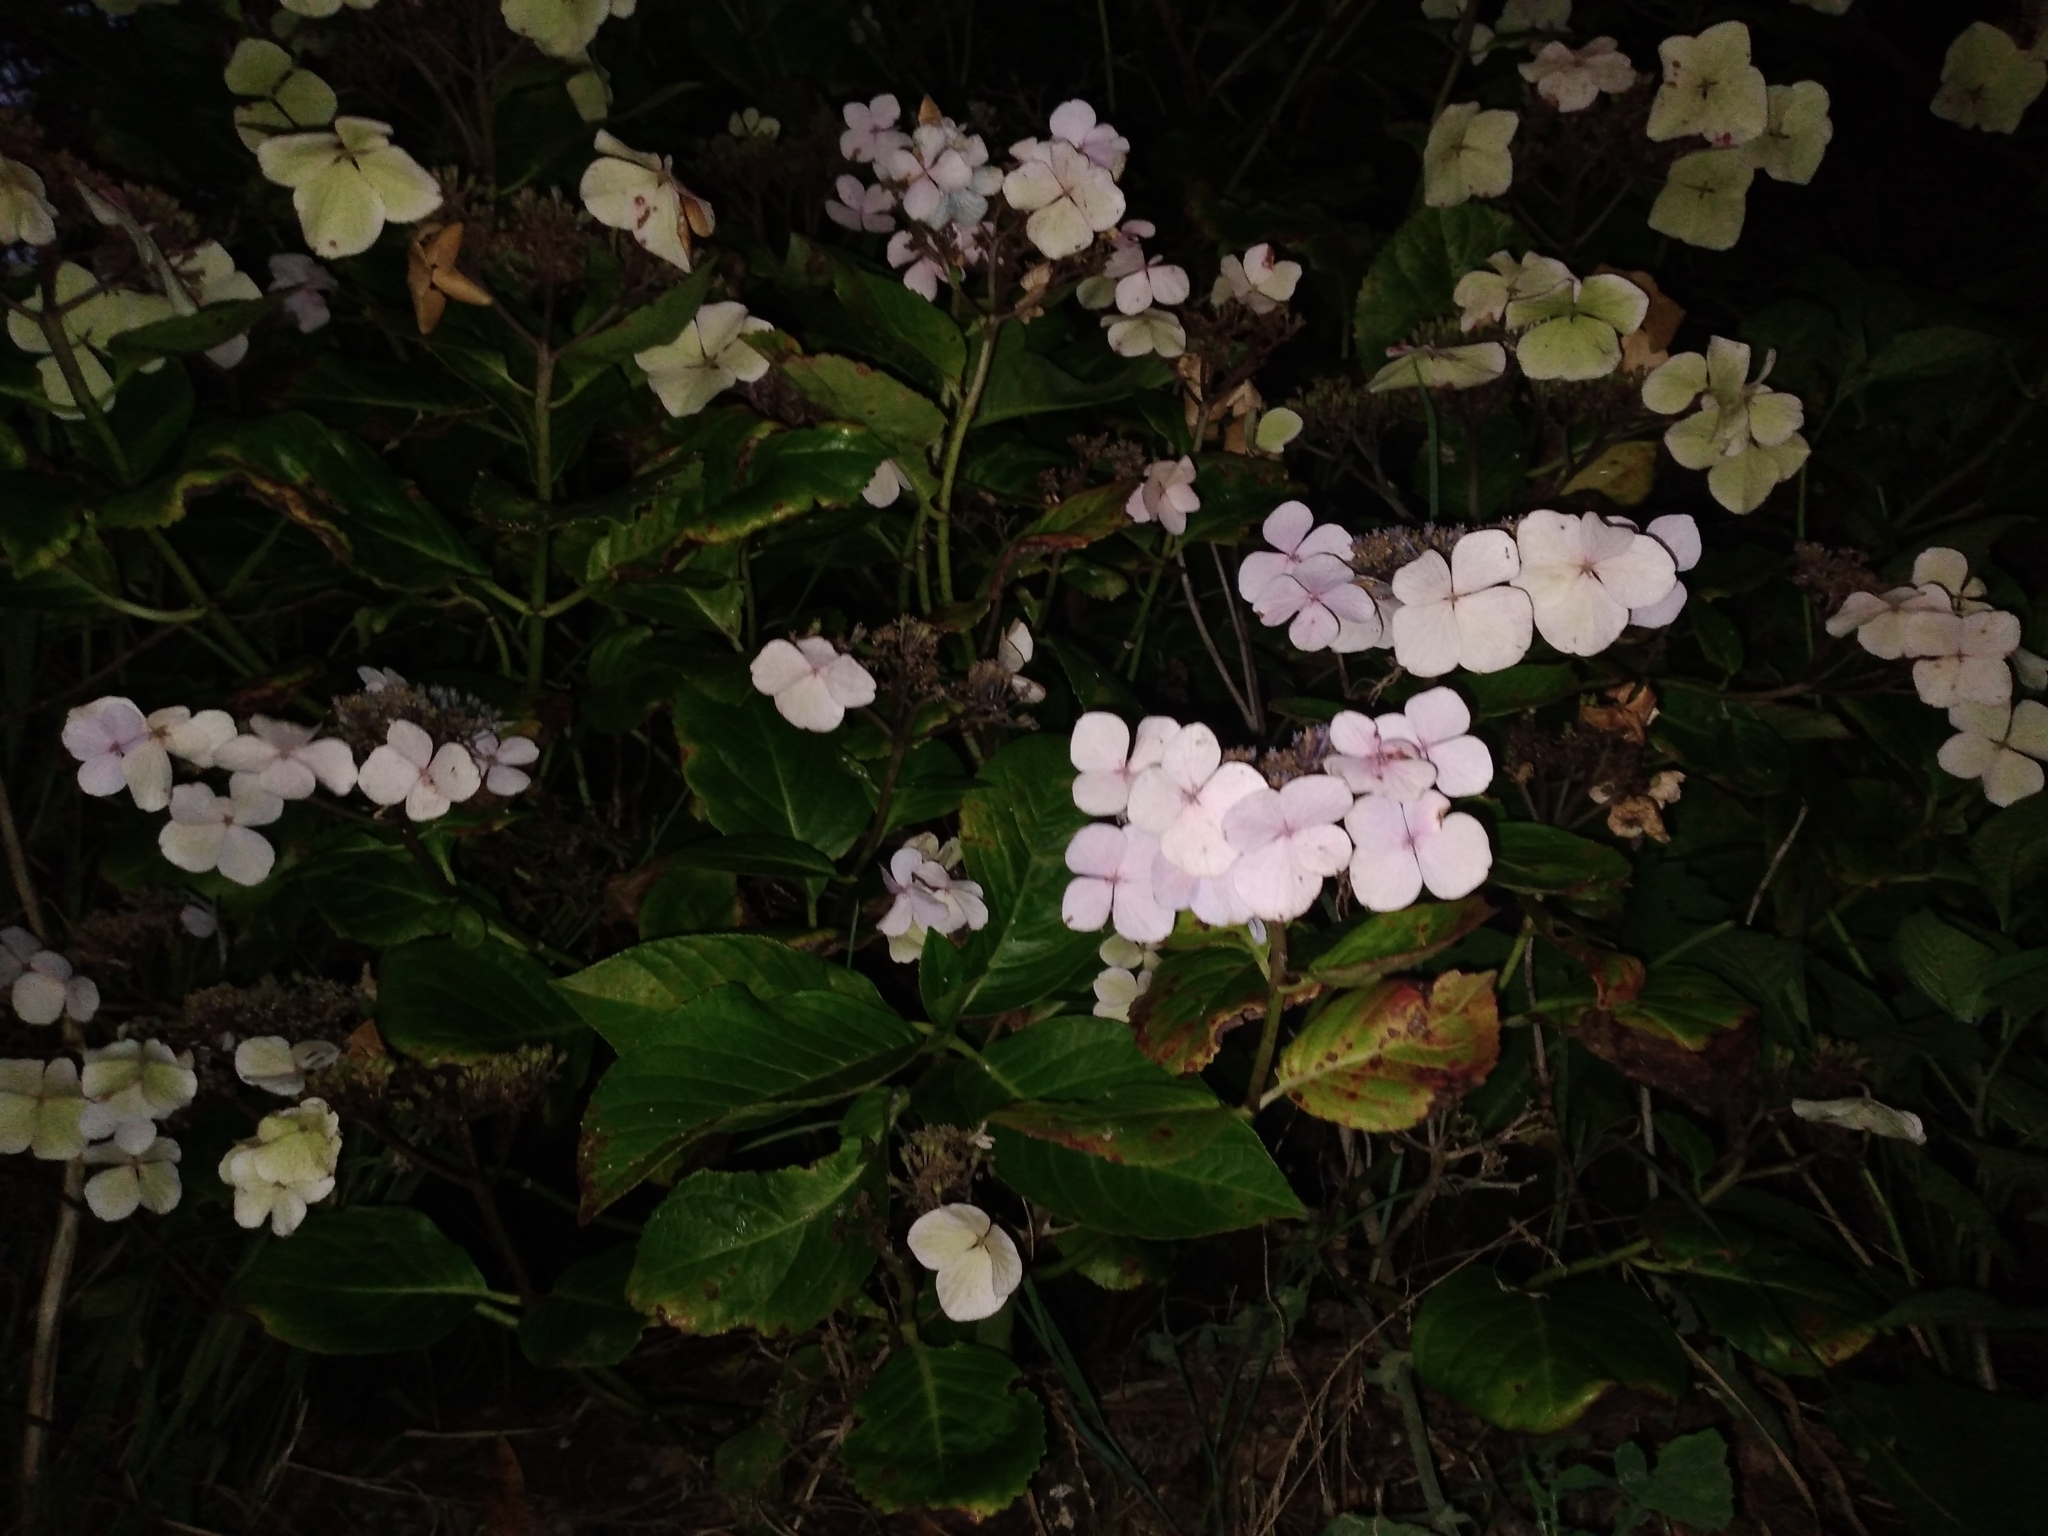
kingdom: Plantae
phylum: Tracheophyta
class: Magnoliopsida
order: Cornales
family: Hydrangeaceae
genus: Hydrangea
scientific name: Hydrangea macrophylla
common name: Hydrangea
